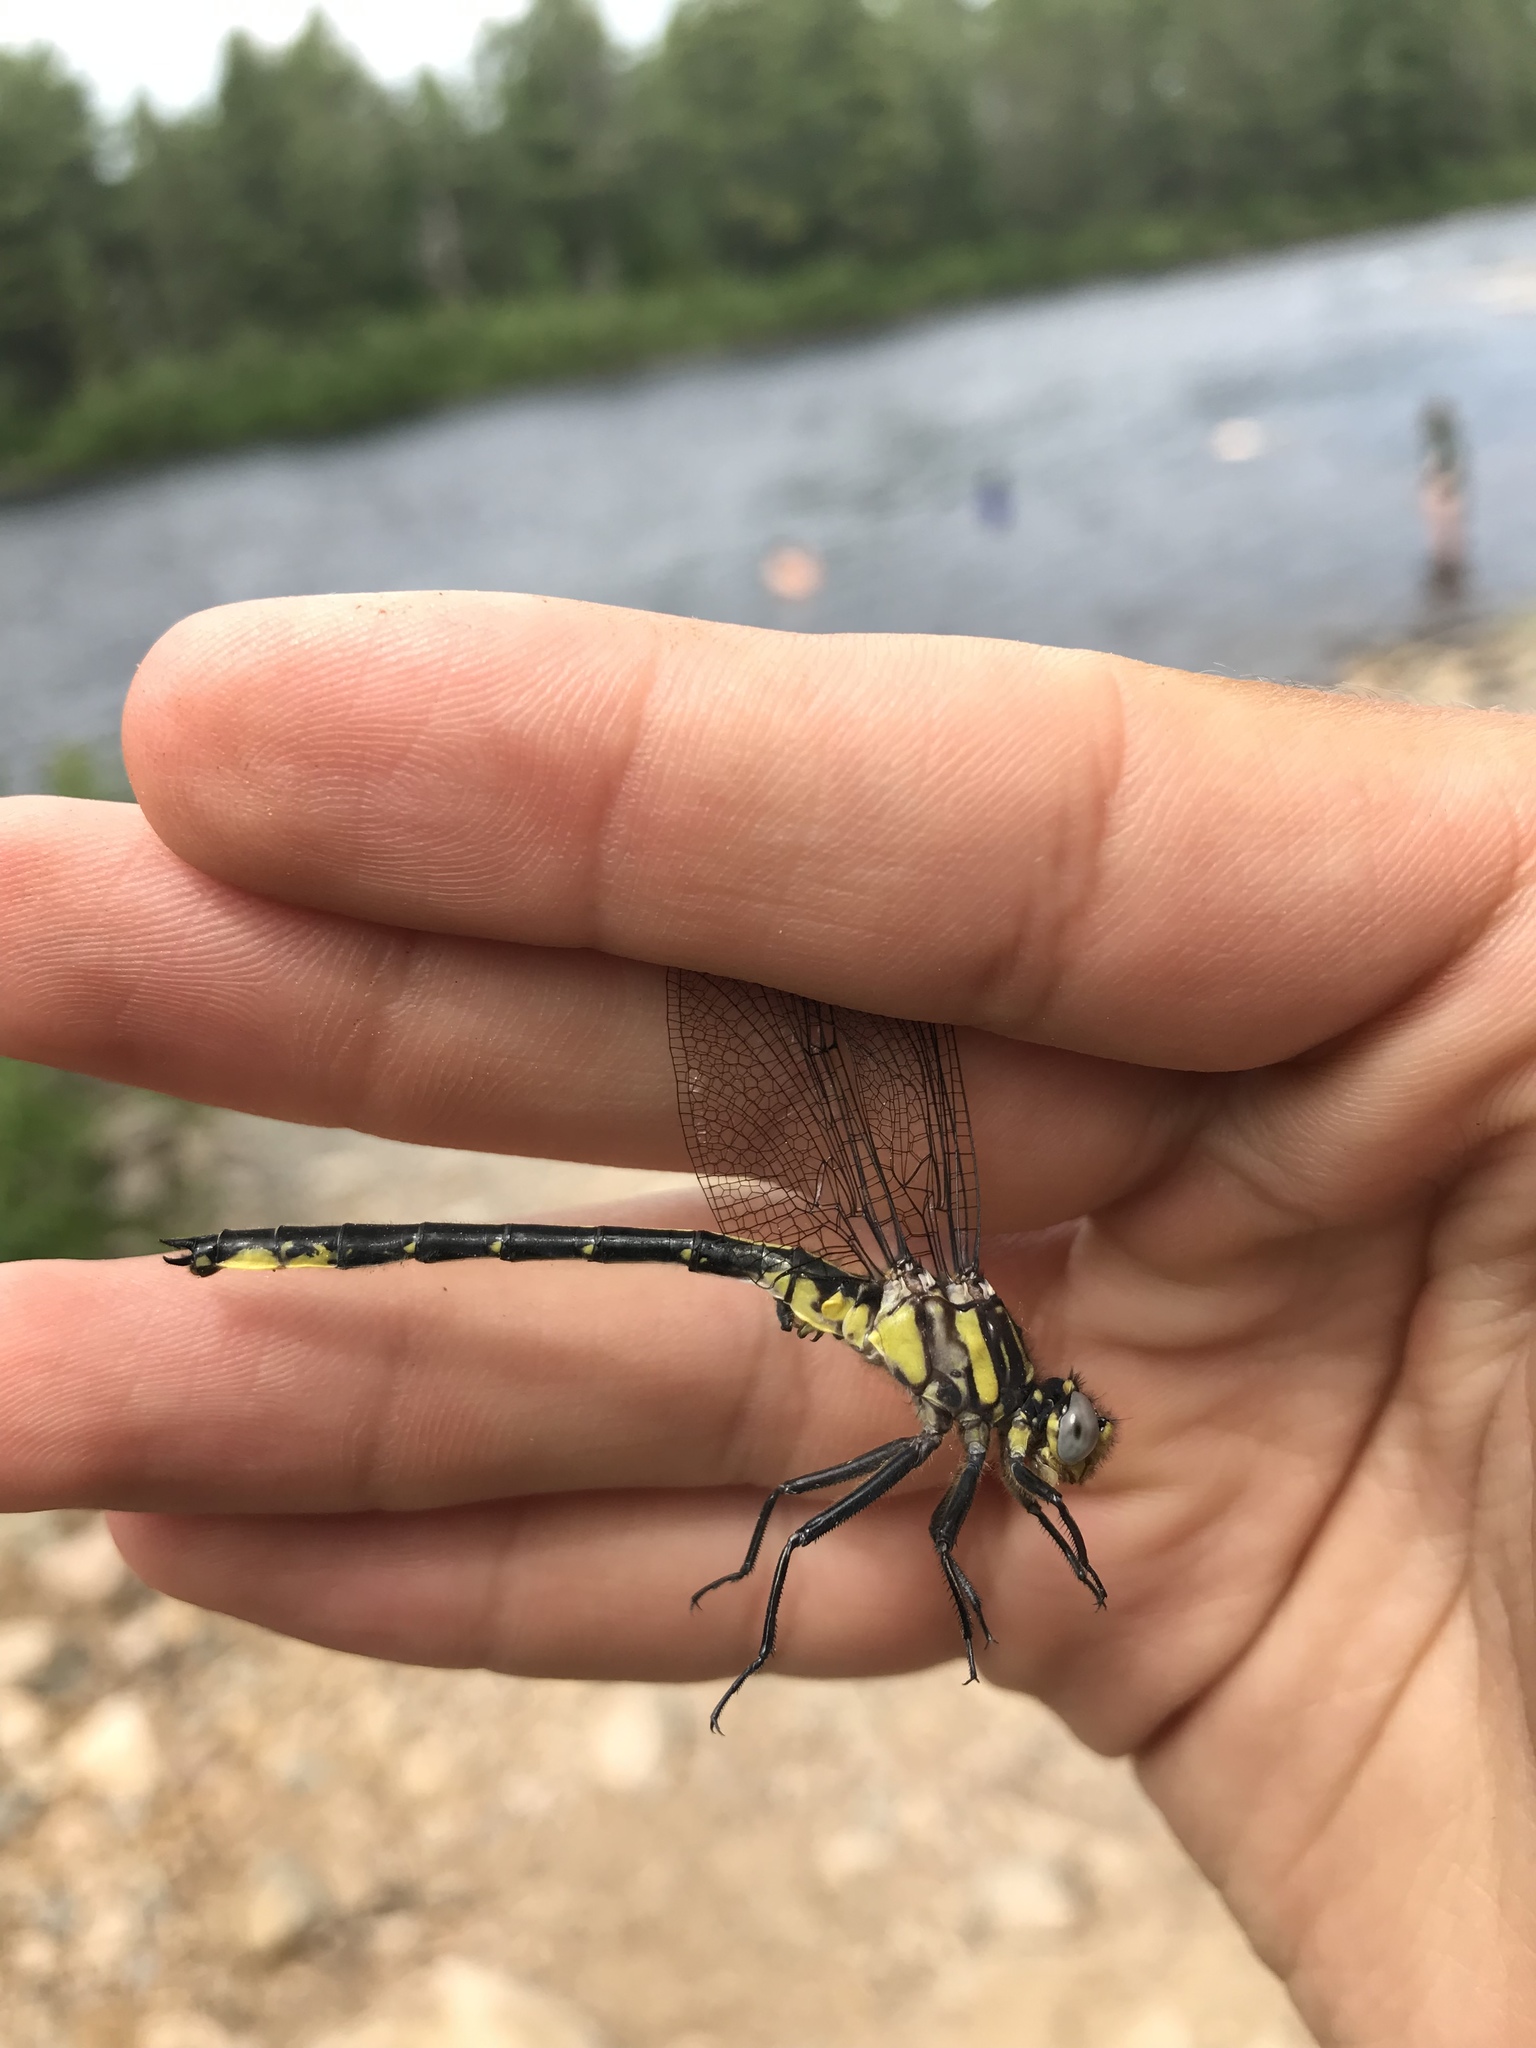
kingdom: Animalia
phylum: Arthropoda
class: Insecta
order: Odonata
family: Gomphidae
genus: Phanogomphus
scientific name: Phanogomphus descriptus
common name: Harpoon clubtail
